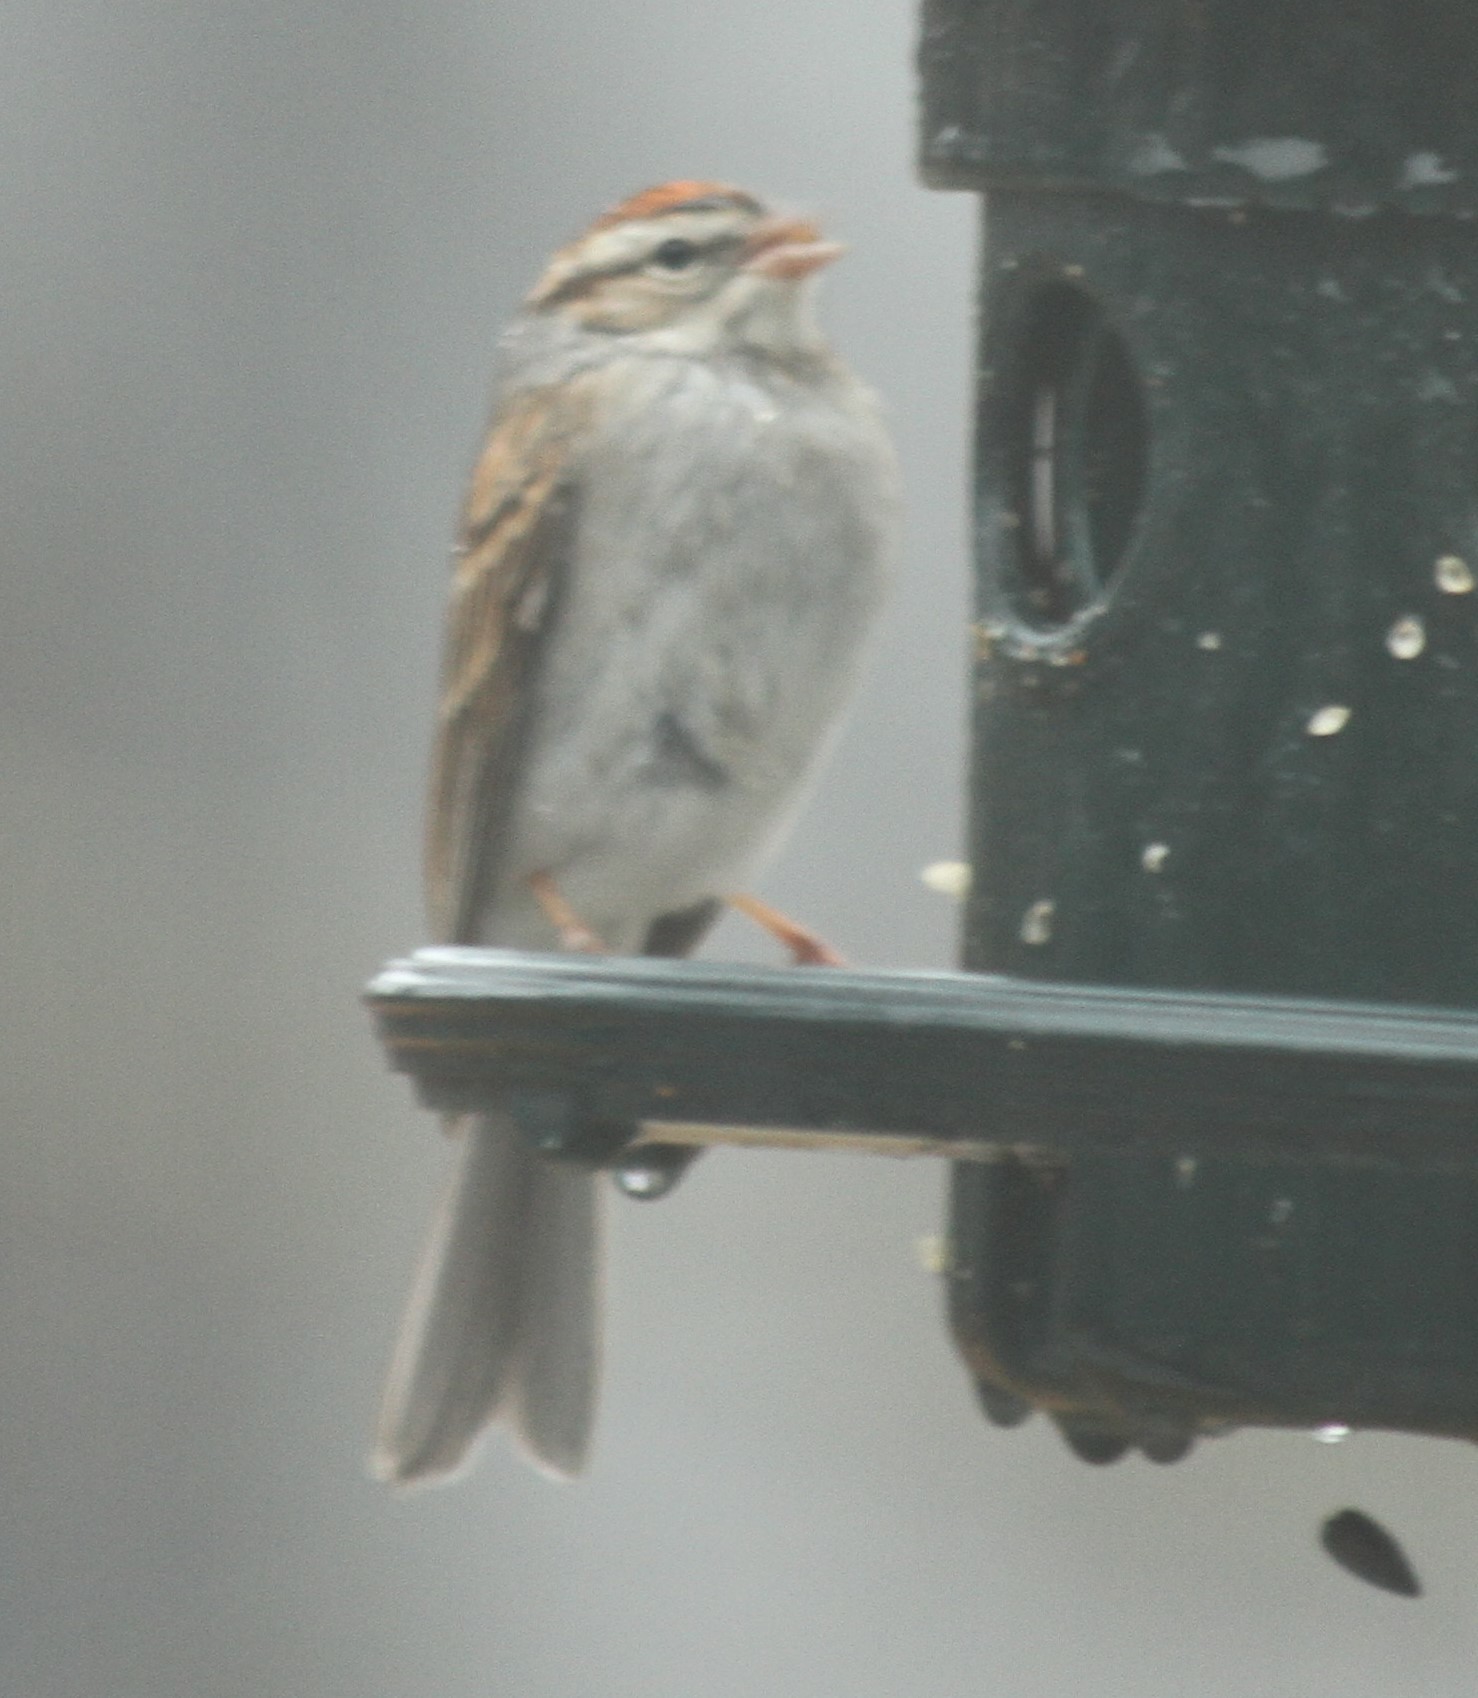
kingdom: Animalia
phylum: Chordata
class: Aves
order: Passeriformes
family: Passerellidae
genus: Spizella
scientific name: Spizella passerina
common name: Chipping sparrow
